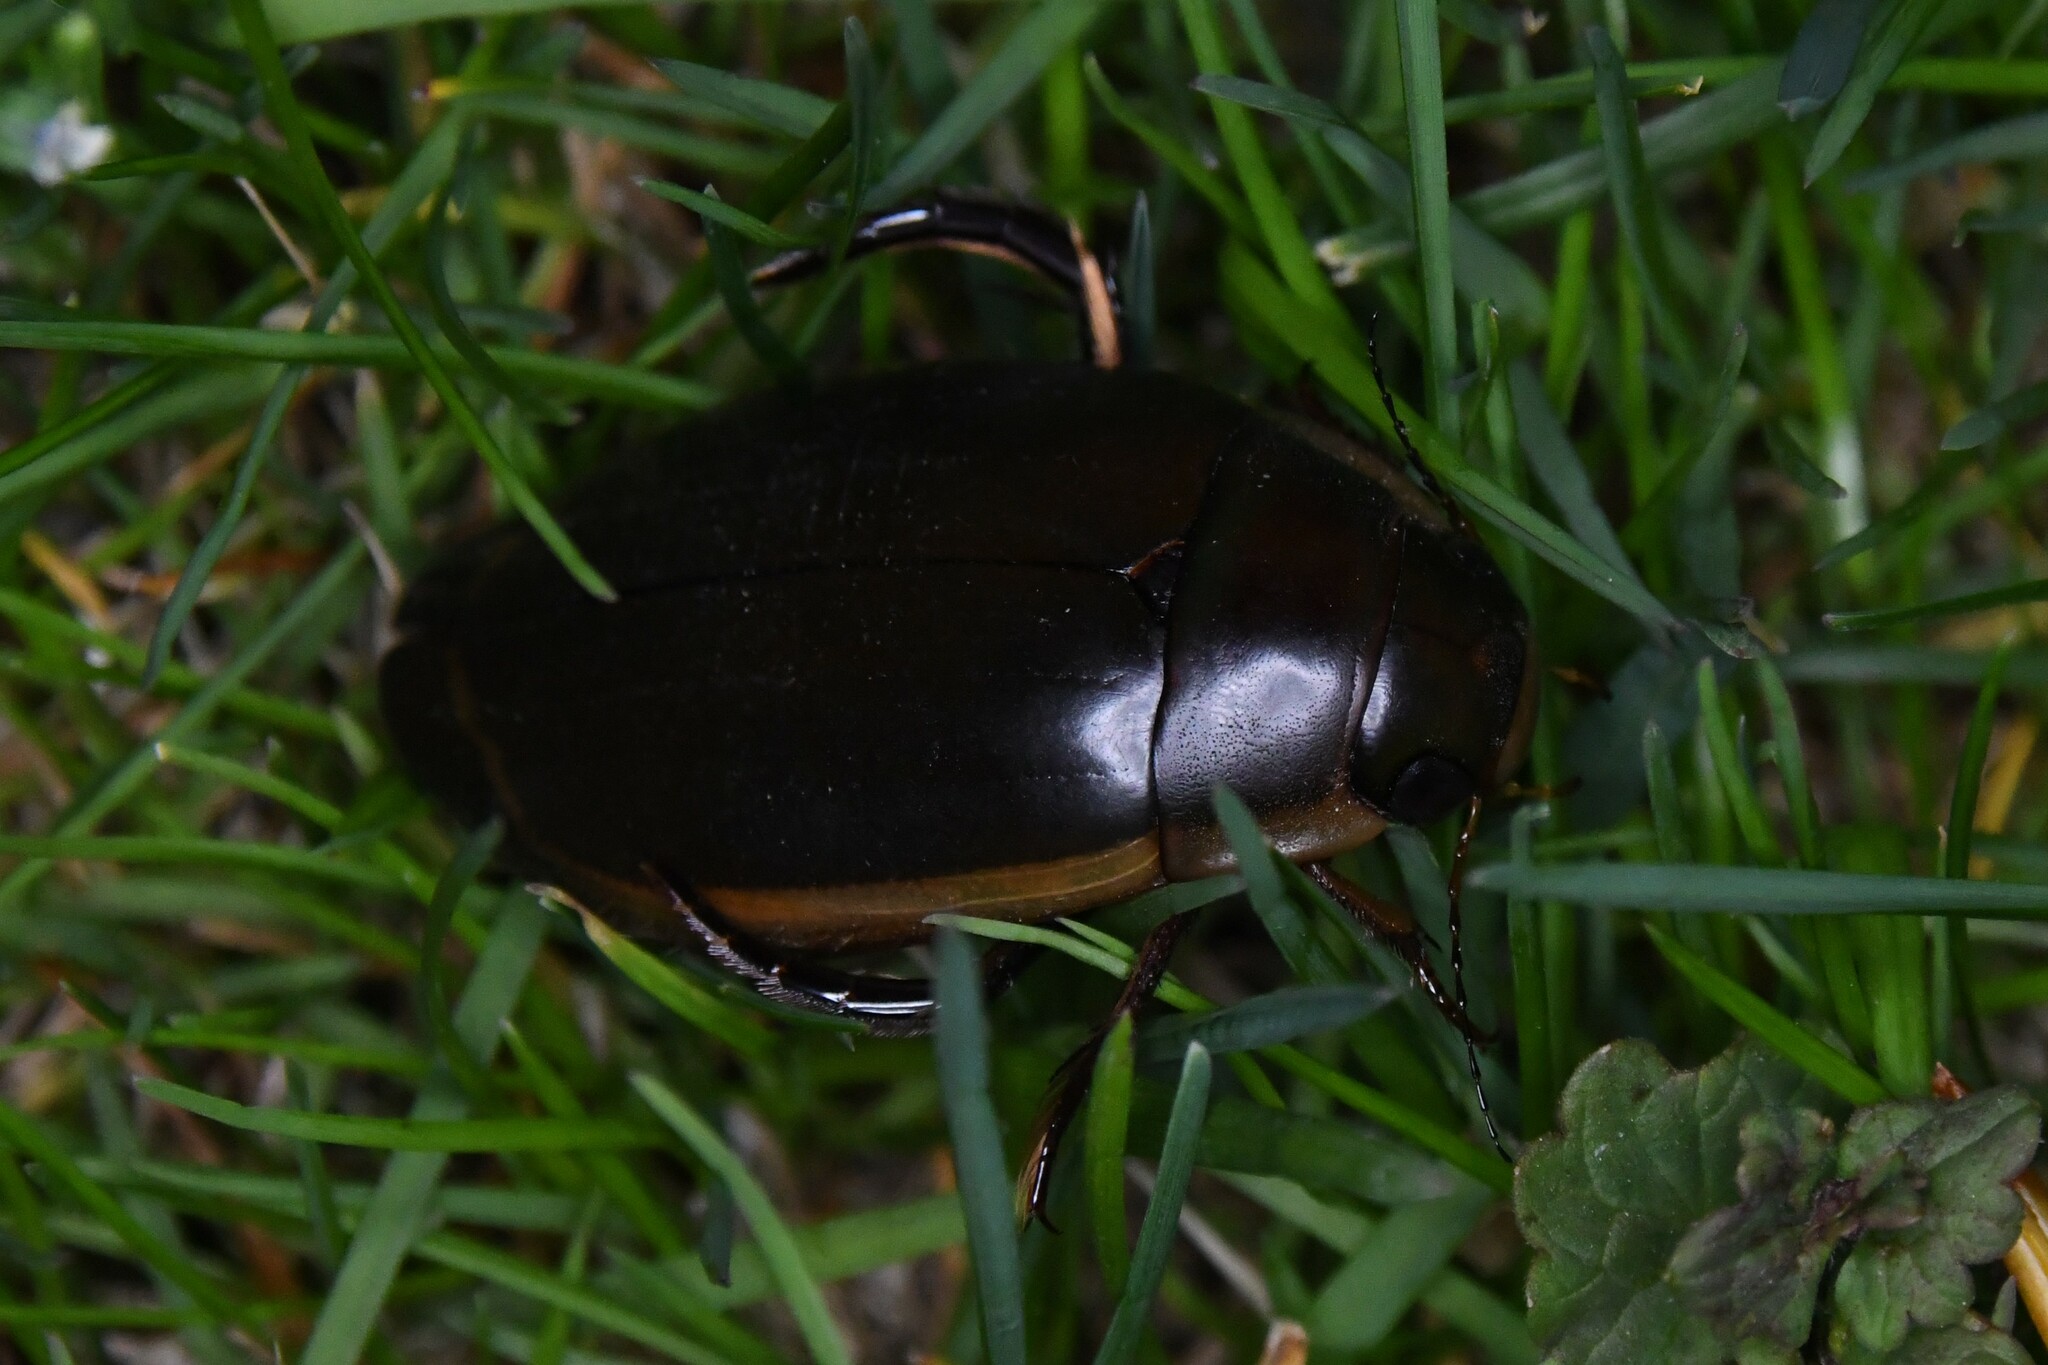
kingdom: Animalia
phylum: Arthropoda
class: Insecta
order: Coleoptera
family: Dytiscidae
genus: Dytiscus
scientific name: Dytiscus verticalis
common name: Vertical diving beetle
